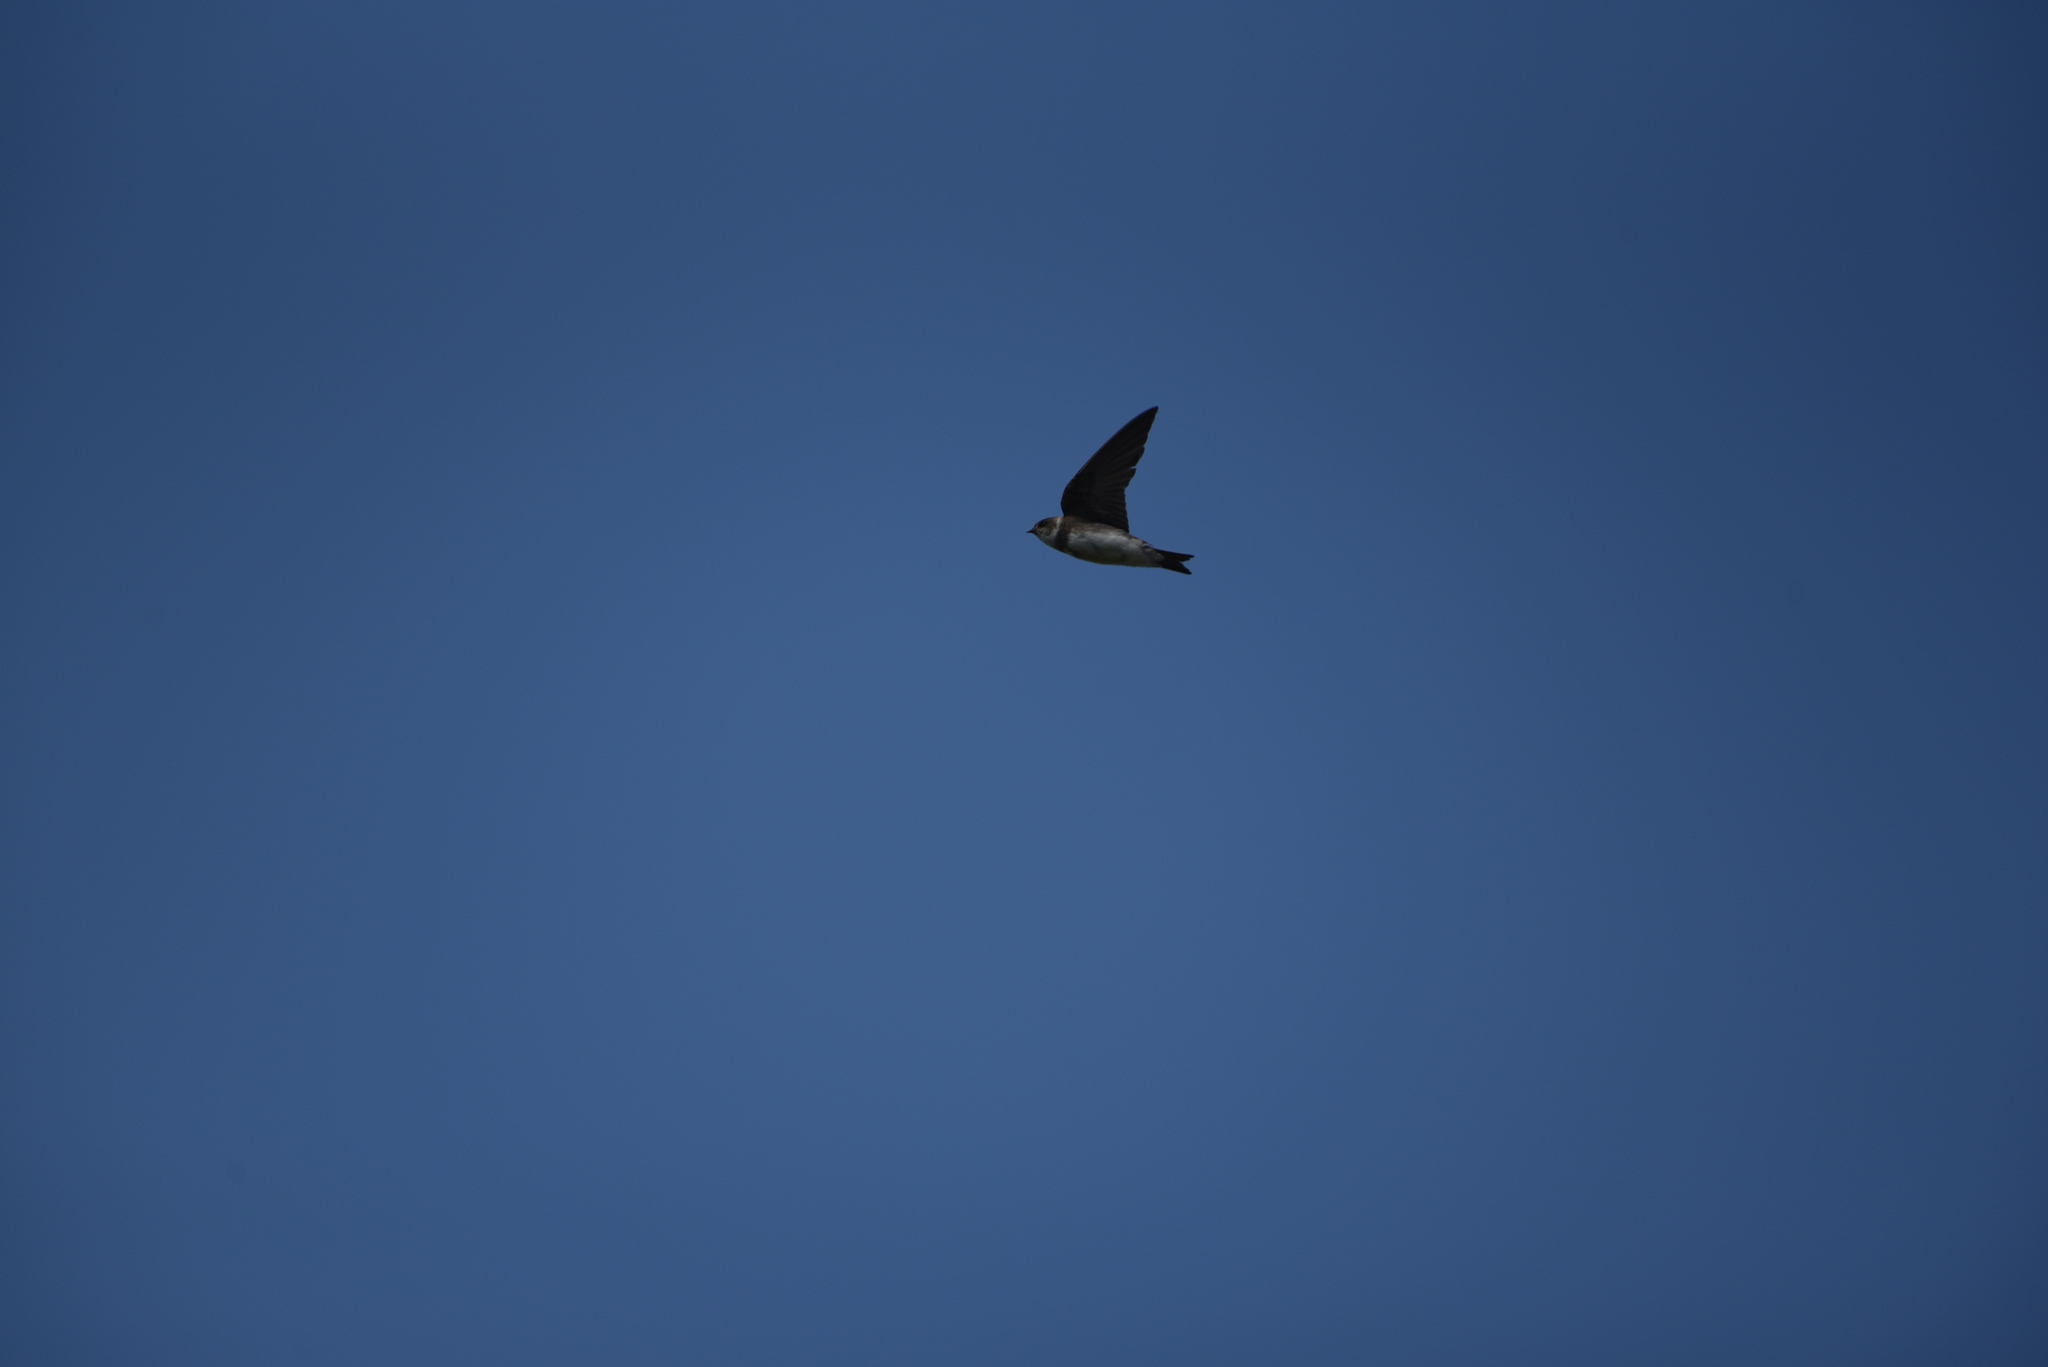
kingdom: Animalia
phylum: Chordata
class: Aves
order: Passeriformes
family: Hirundinidae
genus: Riparia
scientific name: Riparia riparia
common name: Sand martin
